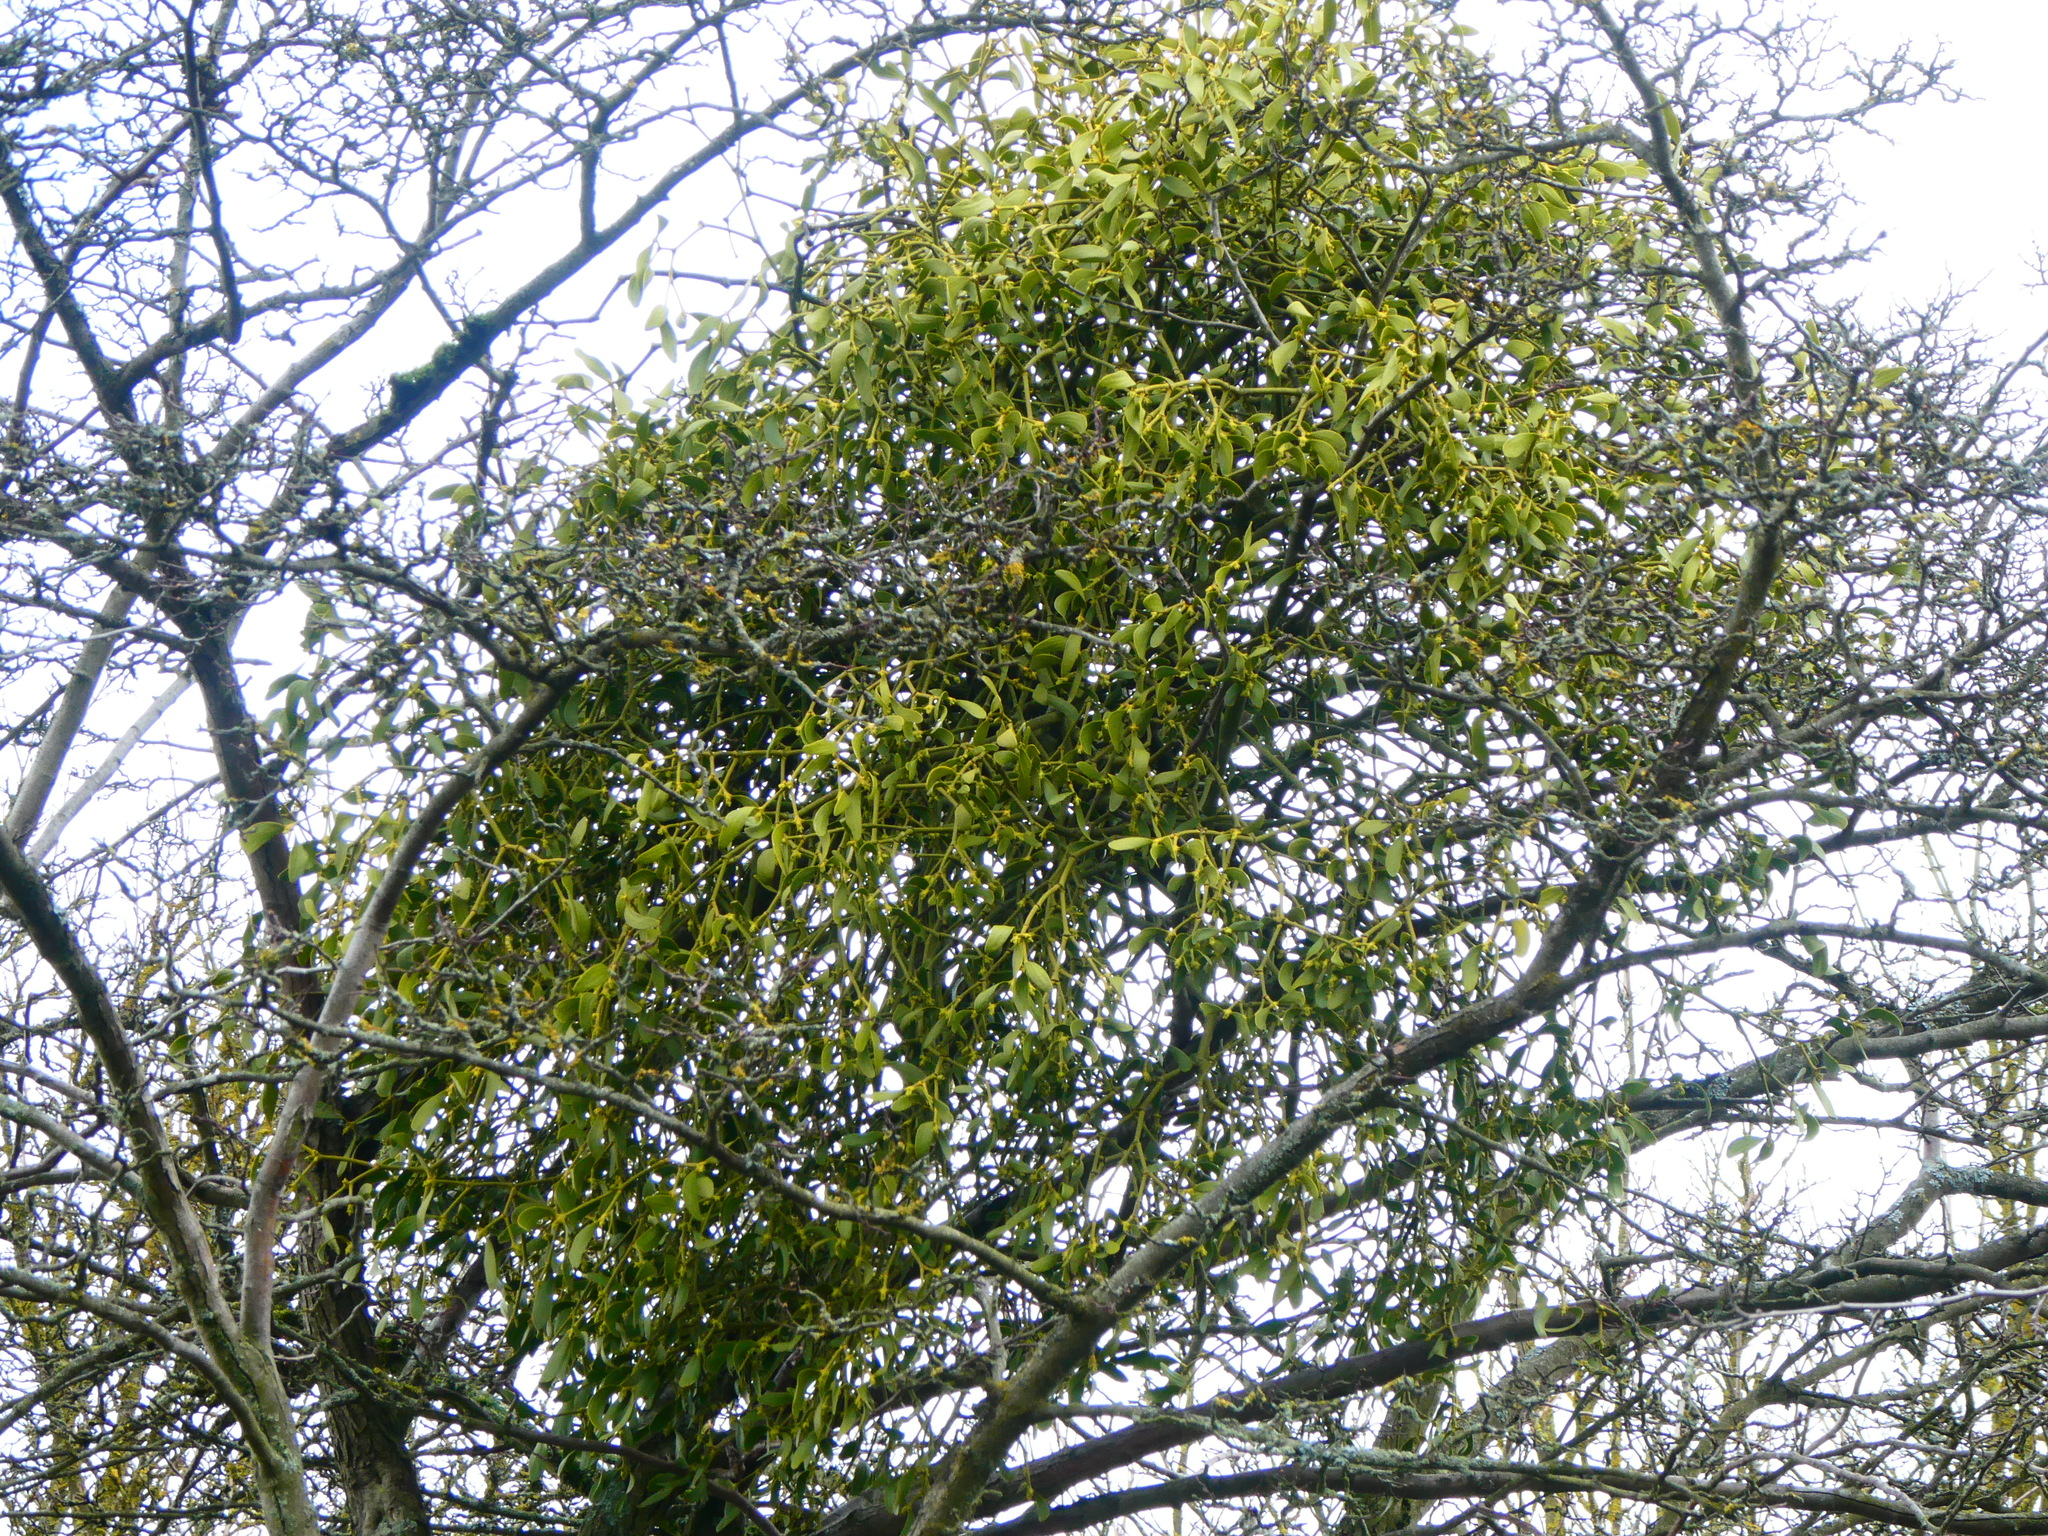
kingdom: Plantae
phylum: Tracheophyta
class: Magnoliopsida
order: Santalales
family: Viscaceae
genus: Viscum
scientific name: Viscum album
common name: Mistletoe
